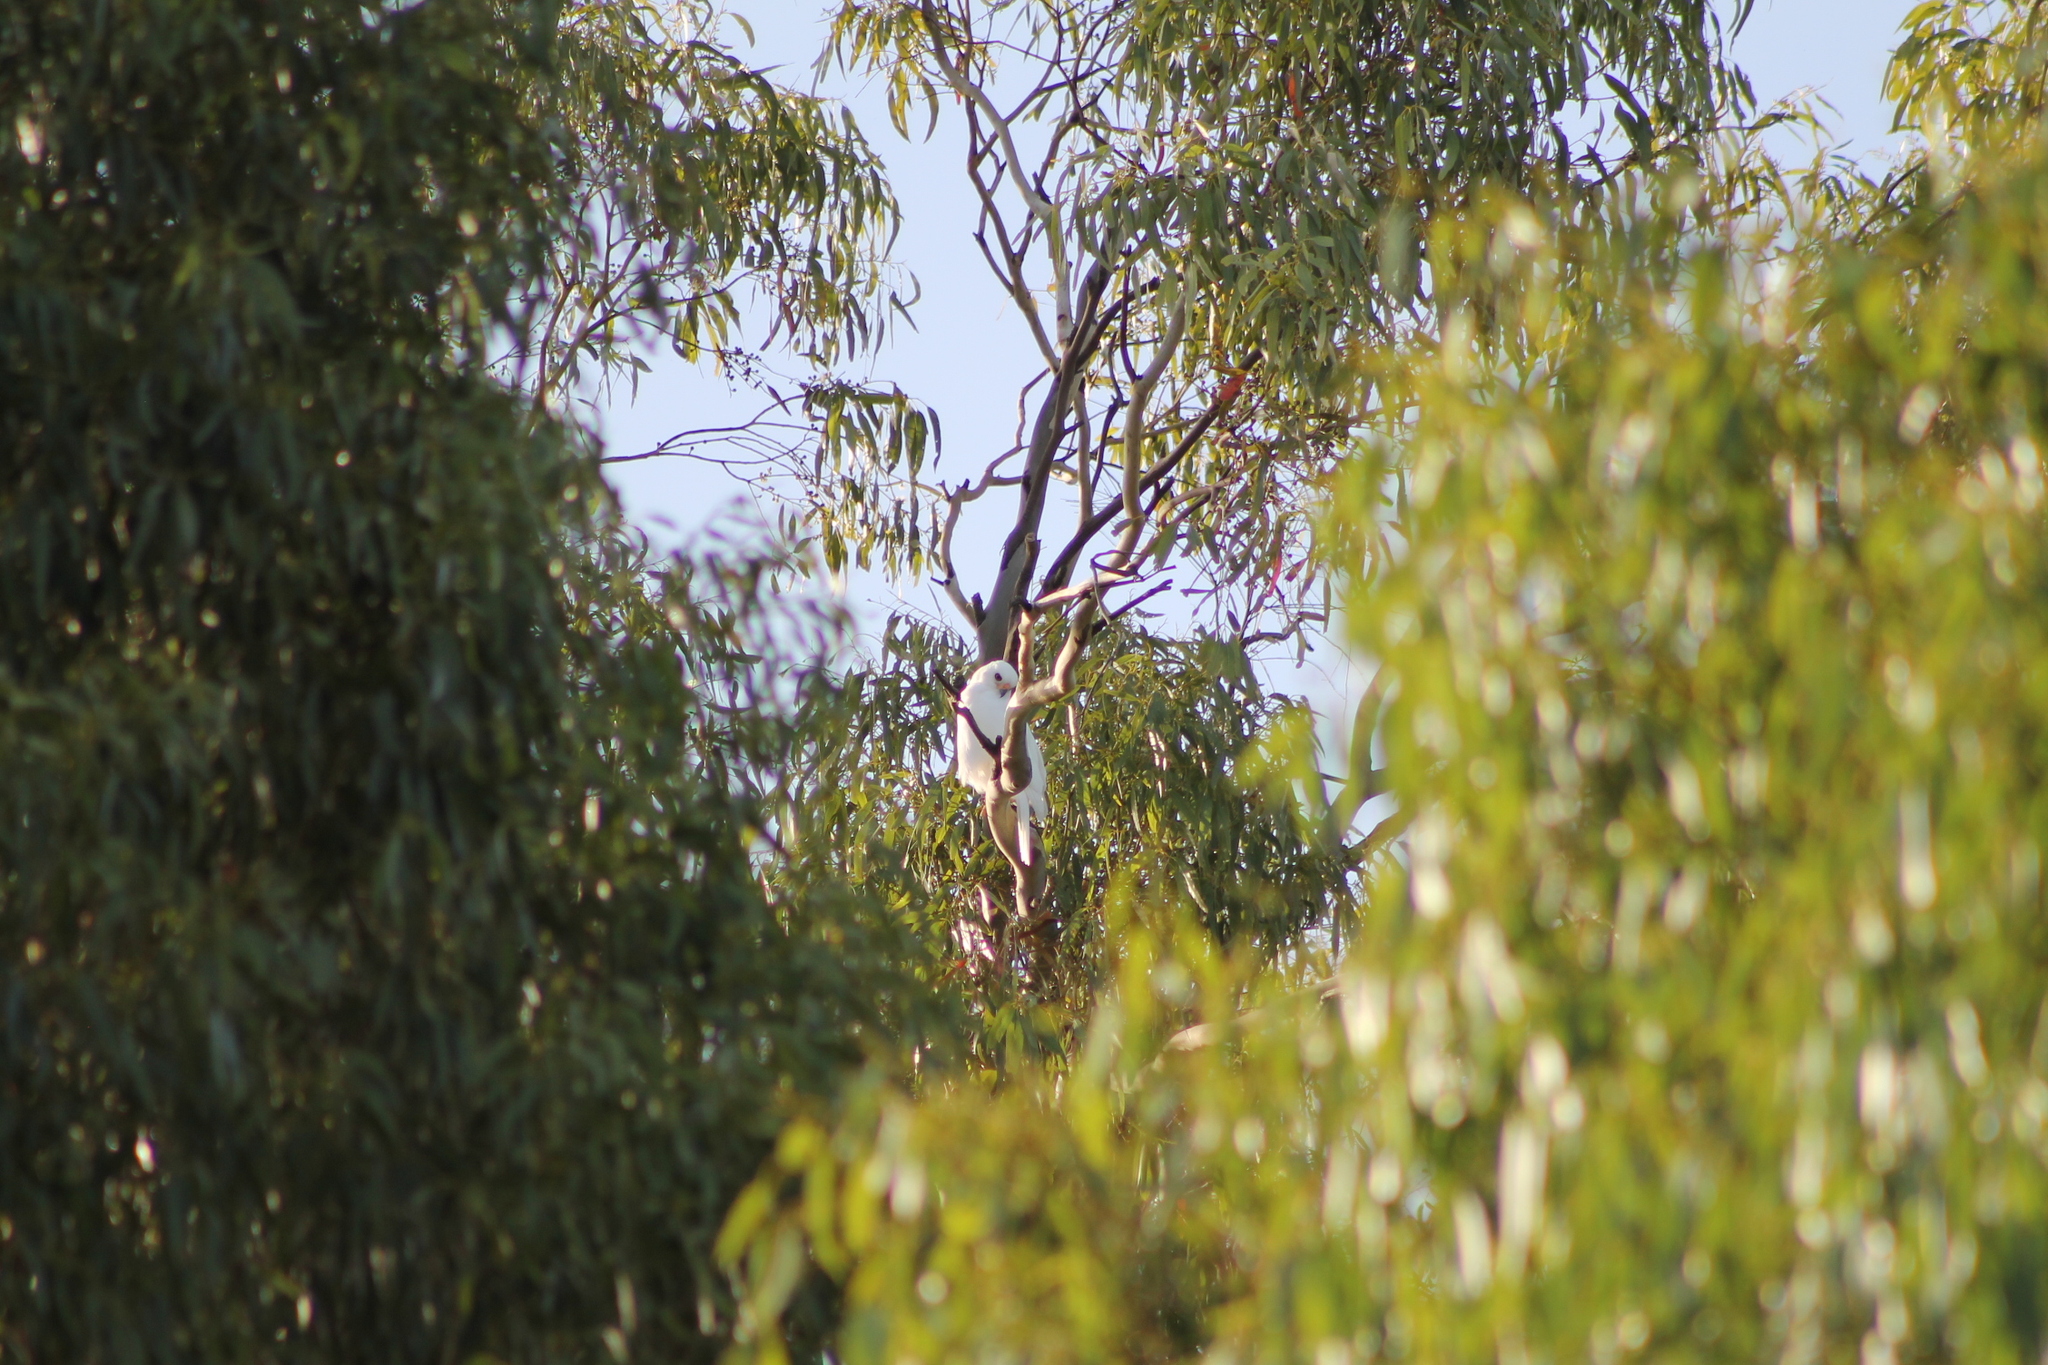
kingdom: Animalia
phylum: Chordata
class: Aves
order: Accipitriformes
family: Accipitridae
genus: Accipiter
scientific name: Accipiter novaehollandiae
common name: Grey goshawk
